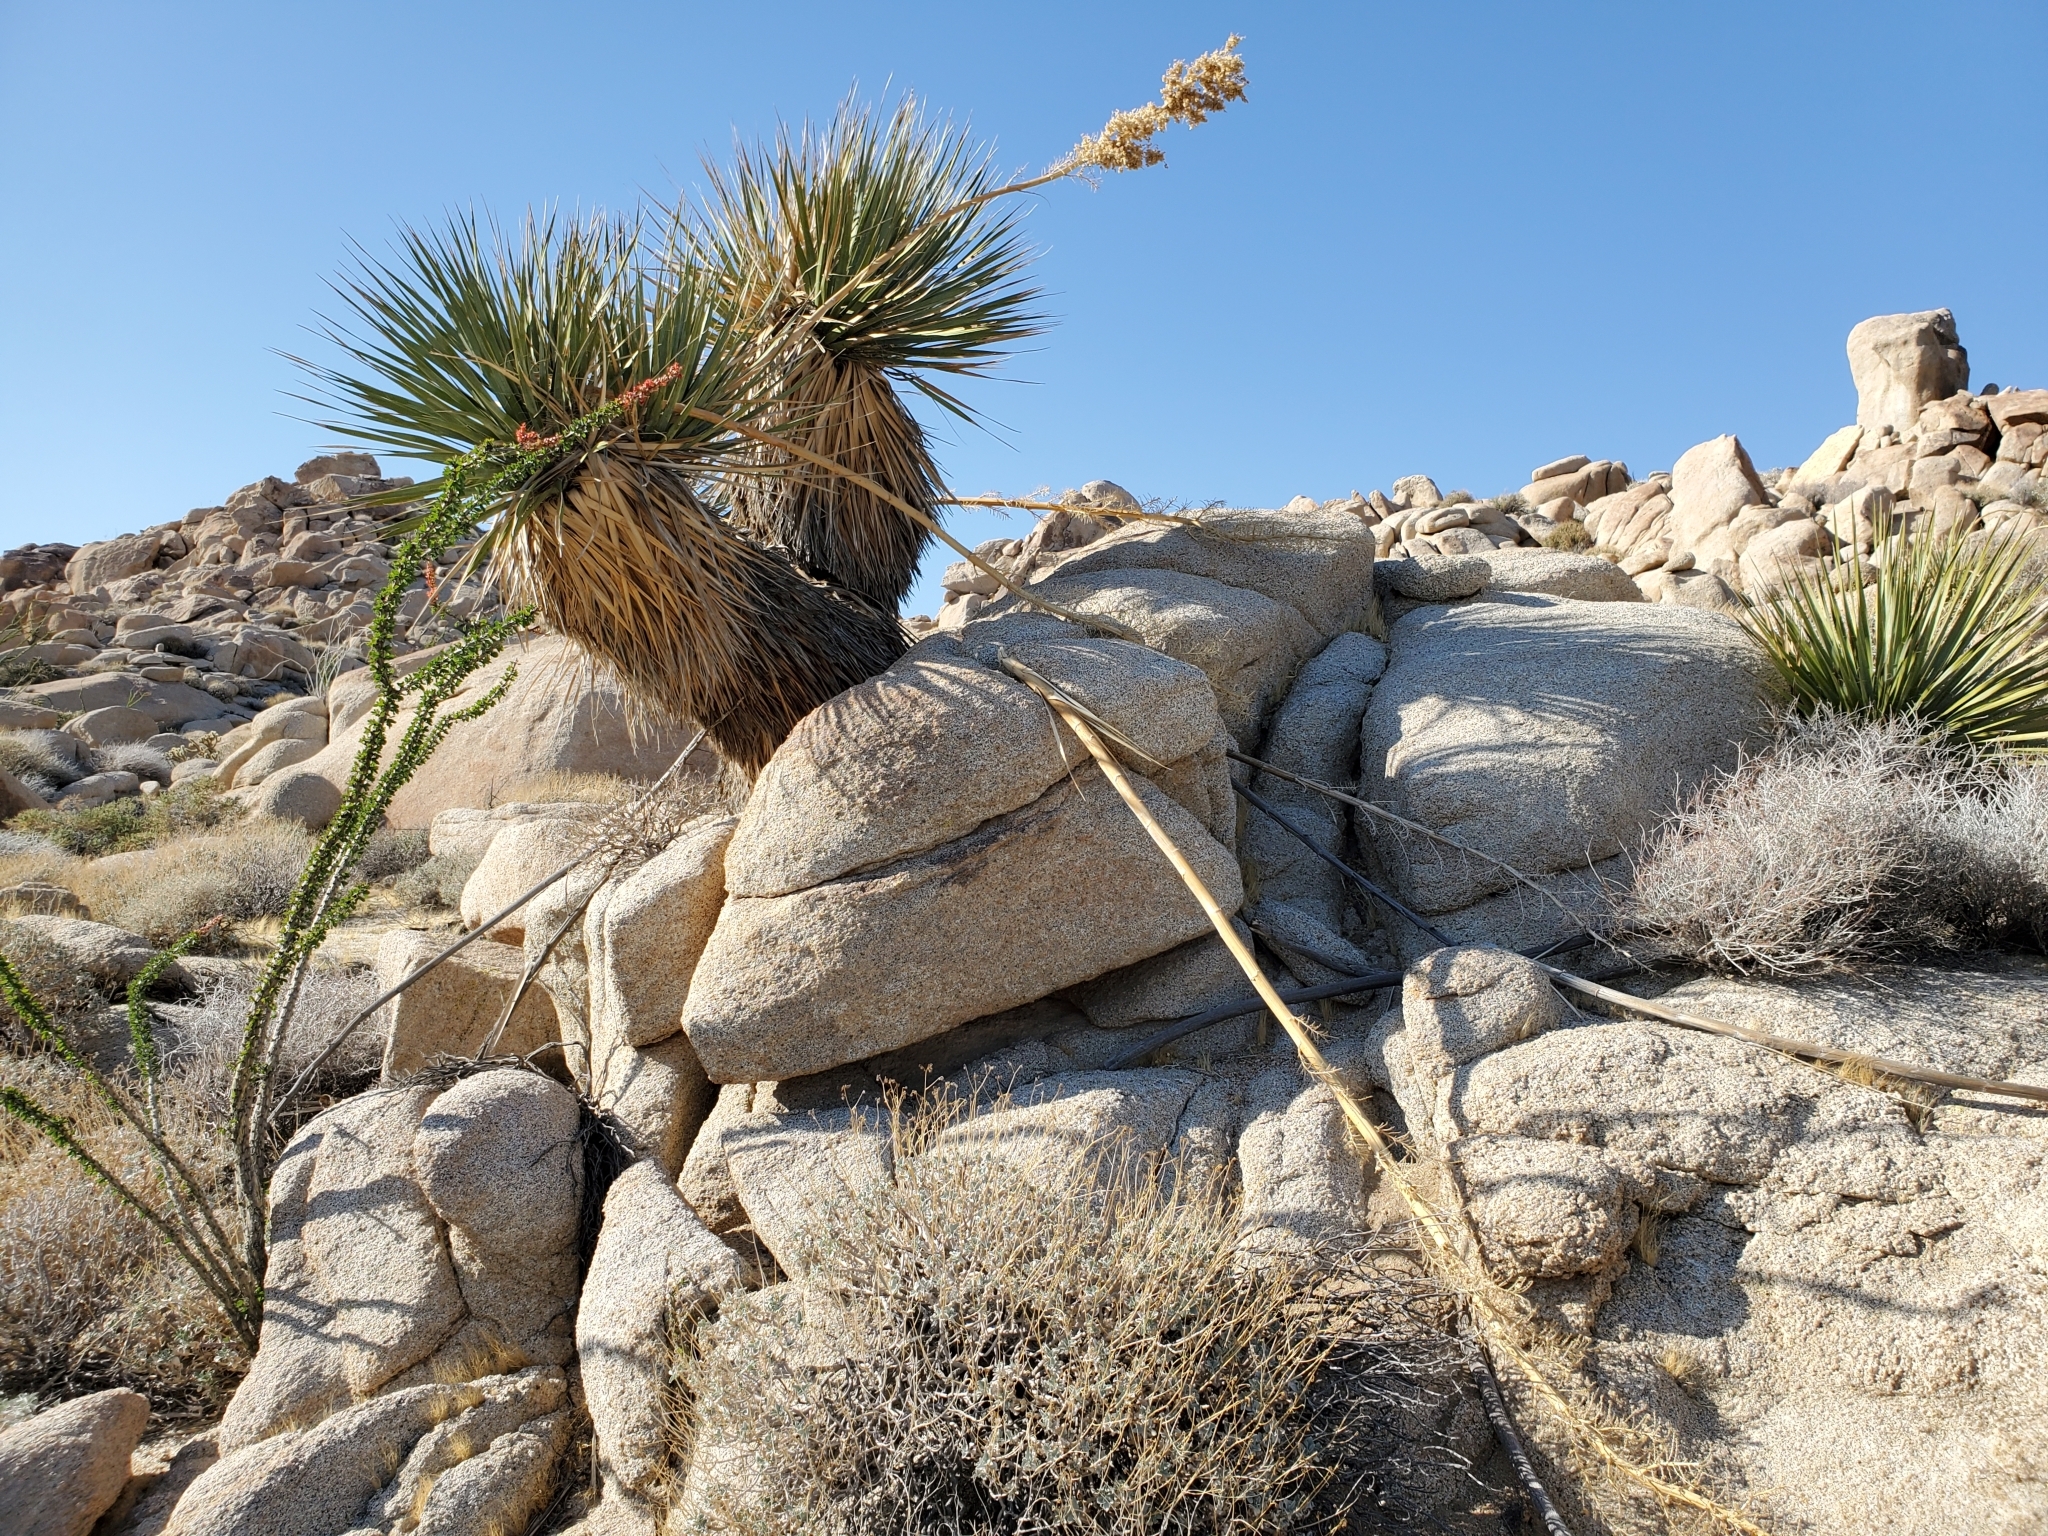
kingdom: Plantae
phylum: Tracheophyta
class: Liliopsida
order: Asparagales
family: Asparagaceae
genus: Nolina
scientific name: Nolina bigelovii
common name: Bigelow bear-grass
